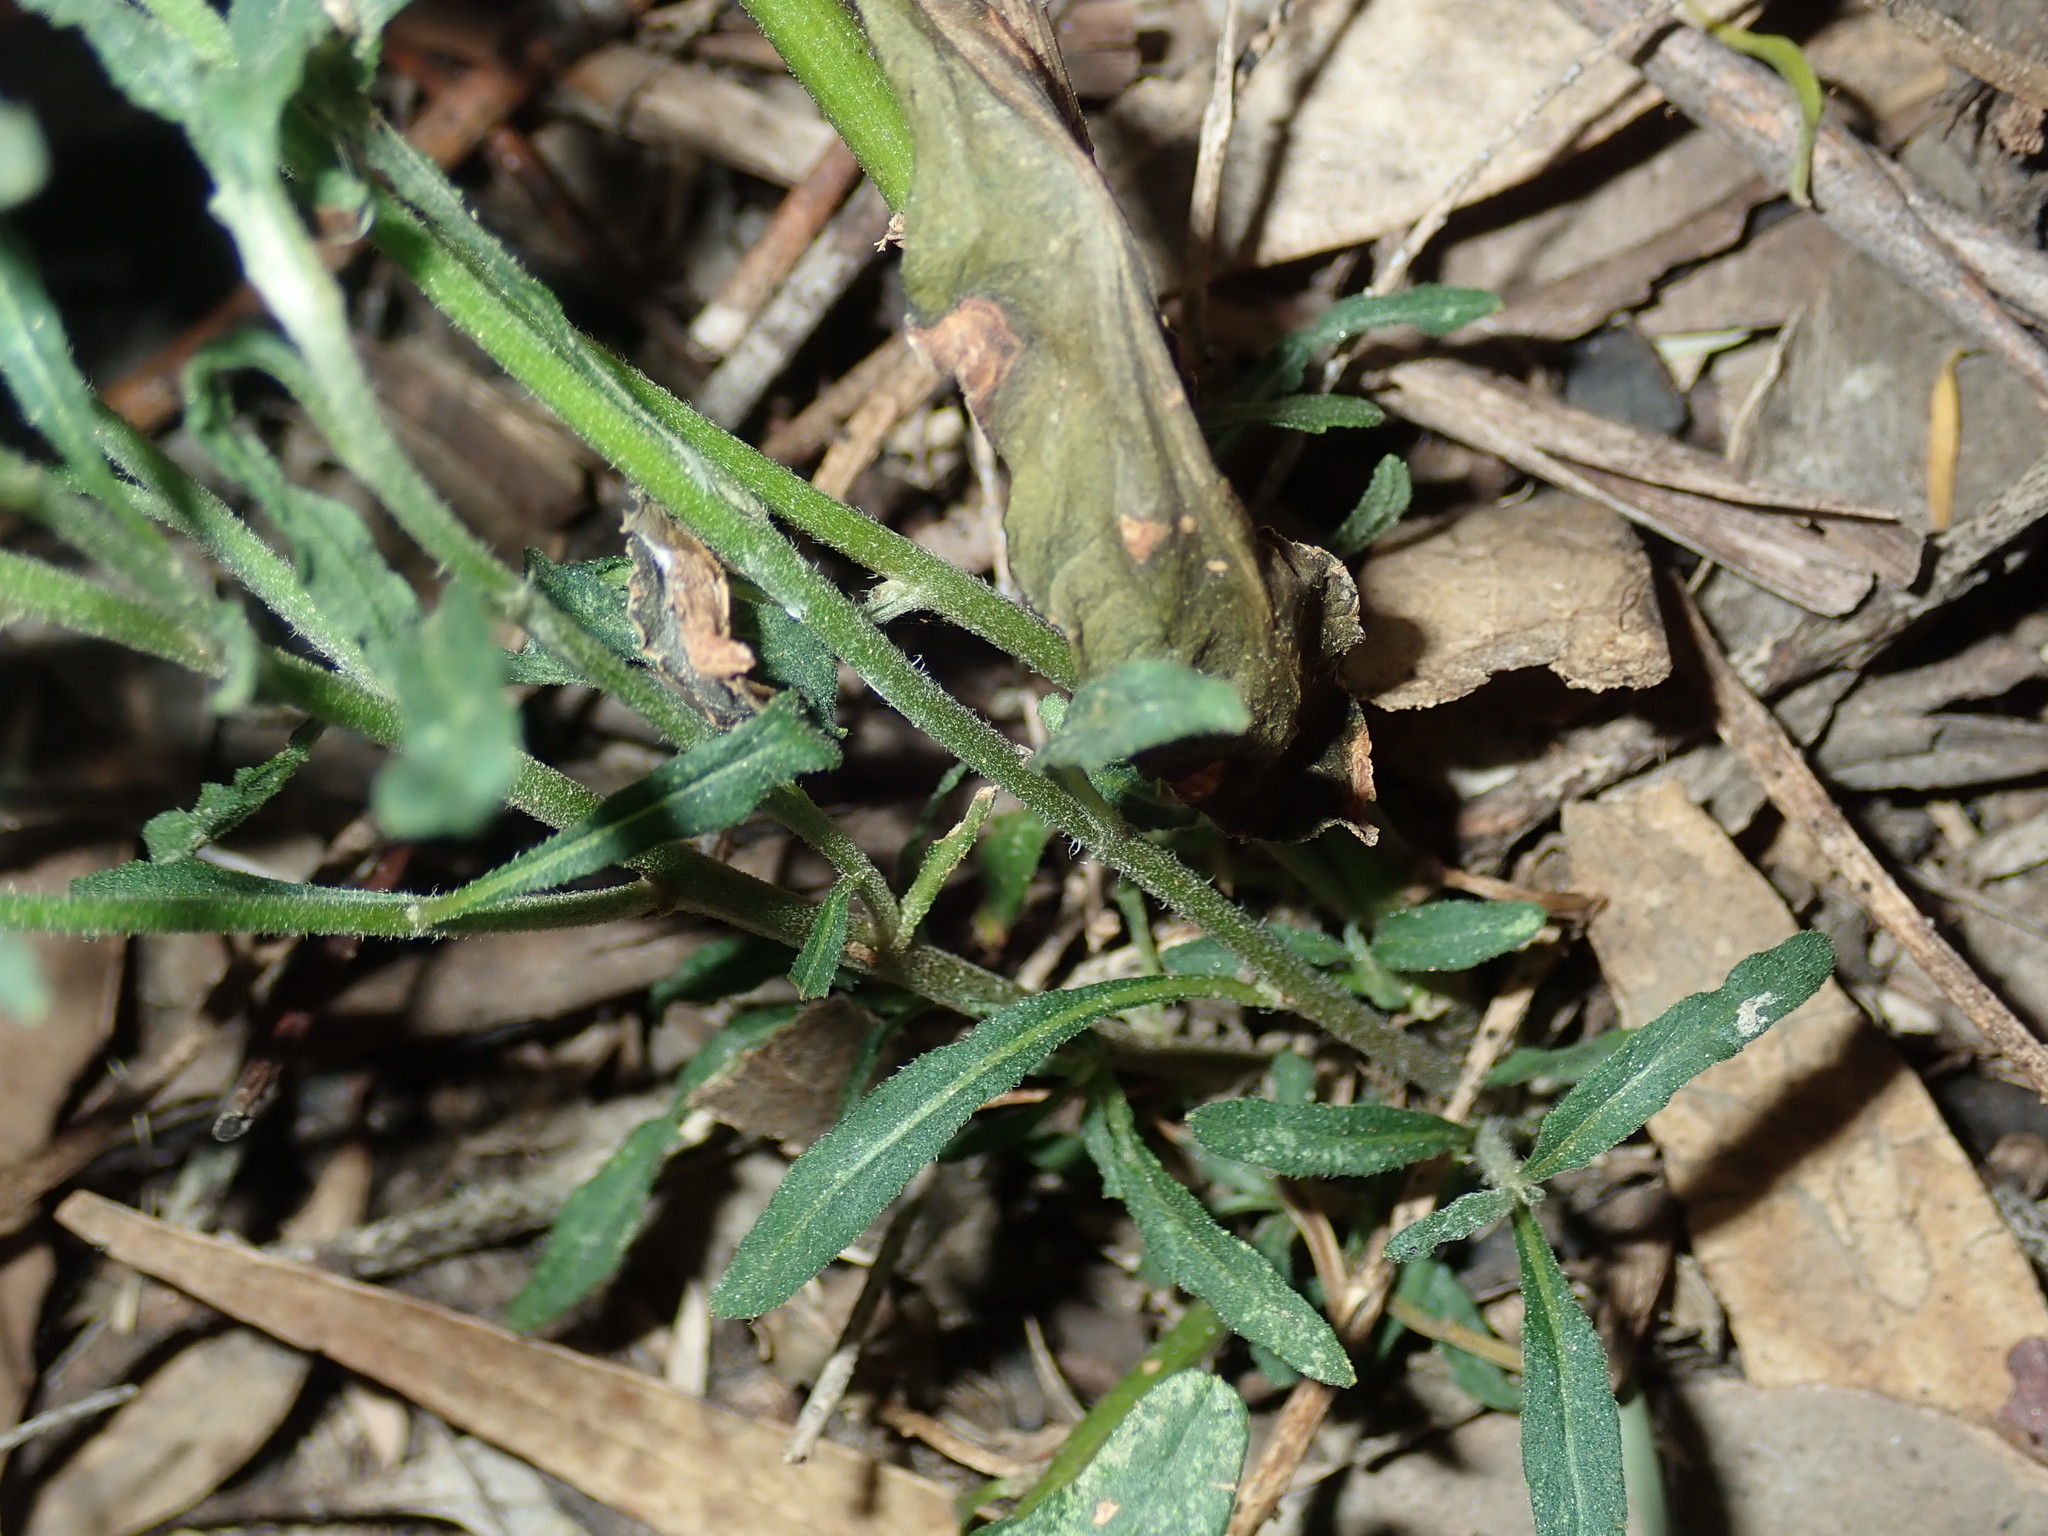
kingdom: Plantae
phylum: Tracheophyta
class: Magnoliopsida
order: Asterales
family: Asteraceae
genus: Cyanthillium
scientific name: Cyanthillium cinereum
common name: Little ironweed
